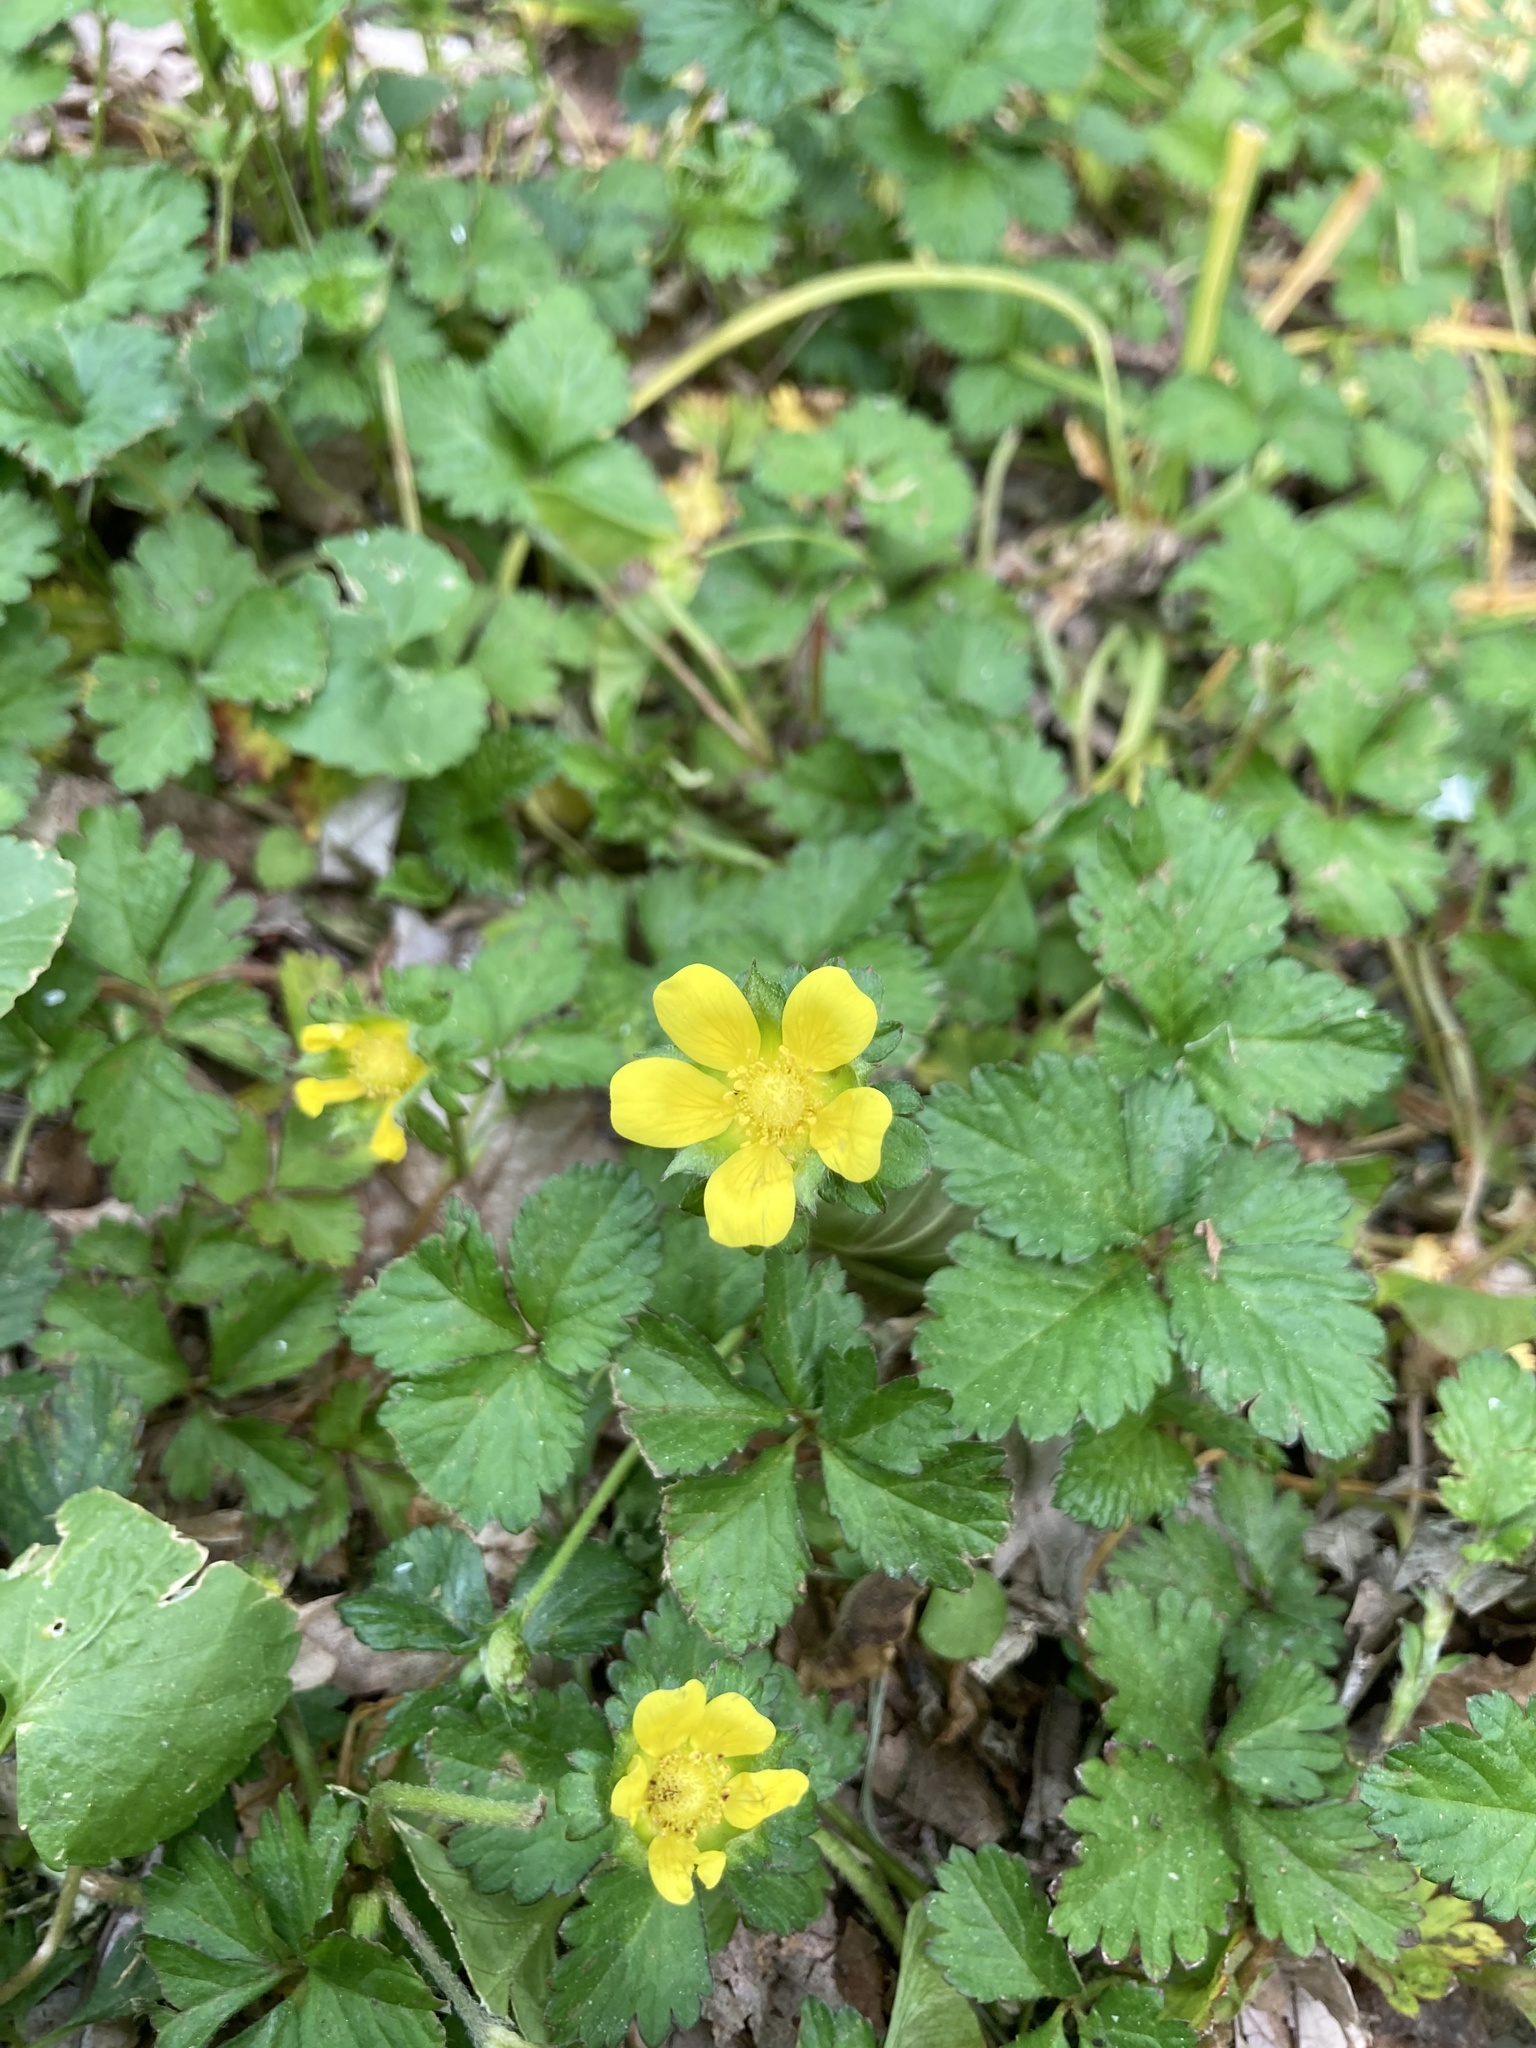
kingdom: Plantae
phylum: Tracheophyta
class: Magnoliopsida
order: Rosales
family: Rosaceae
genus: Potentilla
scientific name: Potentilla indica
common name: Yellow-flowered strawberry
